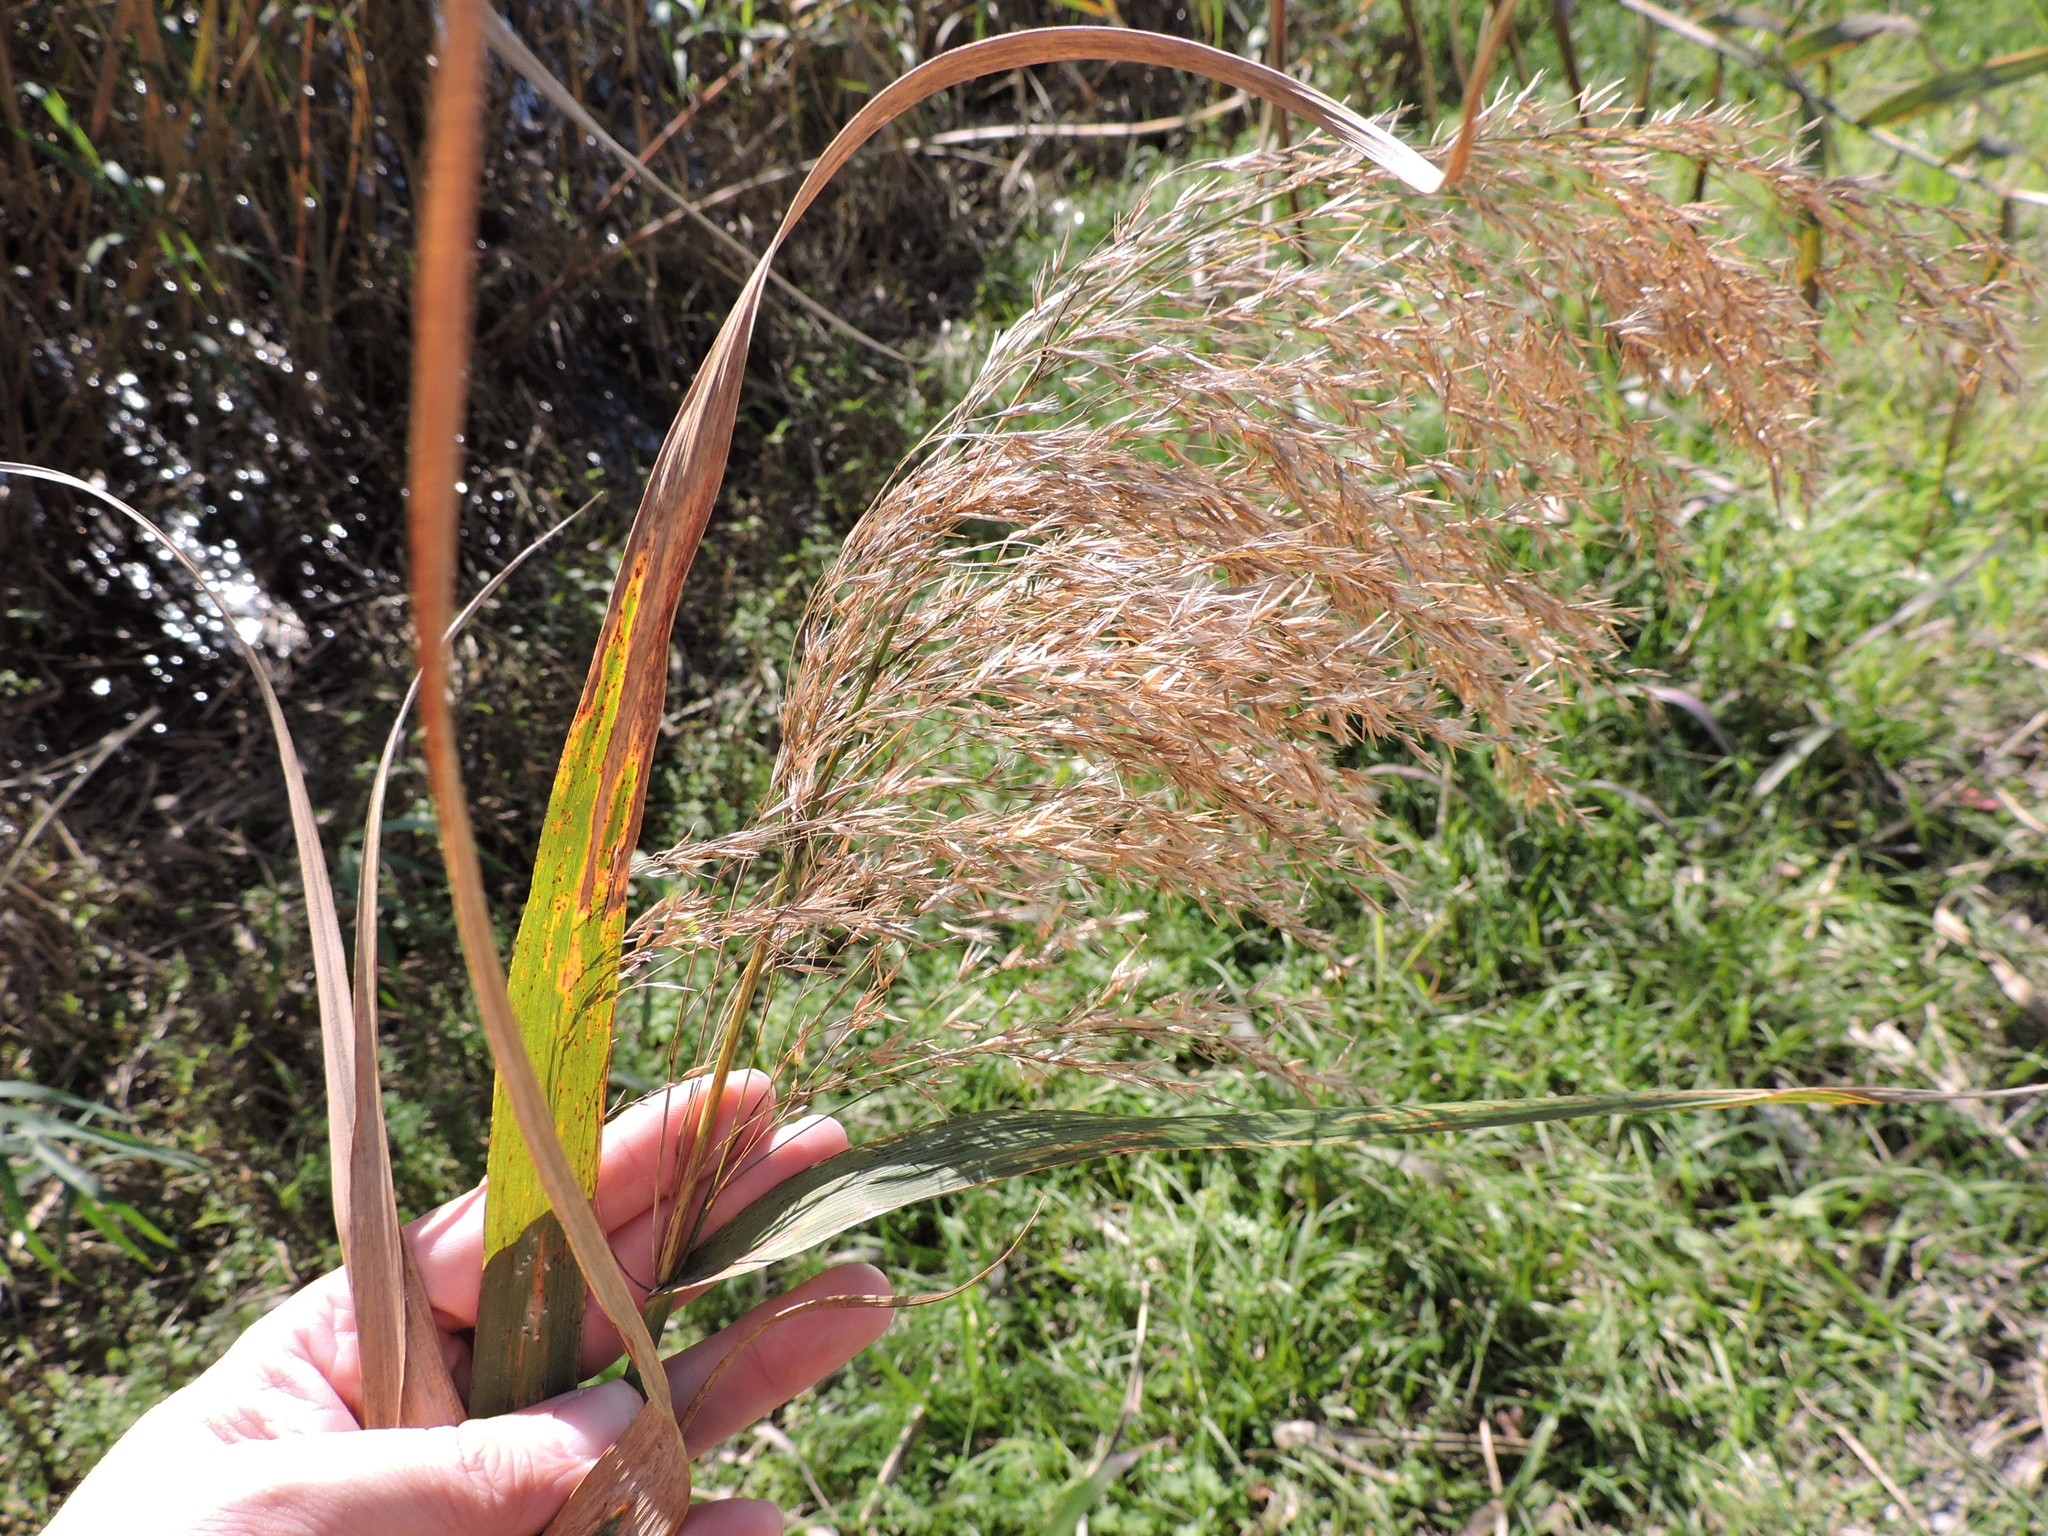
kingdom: Plantae
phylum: Tracheophyta
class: Liliopsida
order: Poales
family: Poaceae
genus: Phragmites
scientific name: Phragmites australis
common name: Common reed
